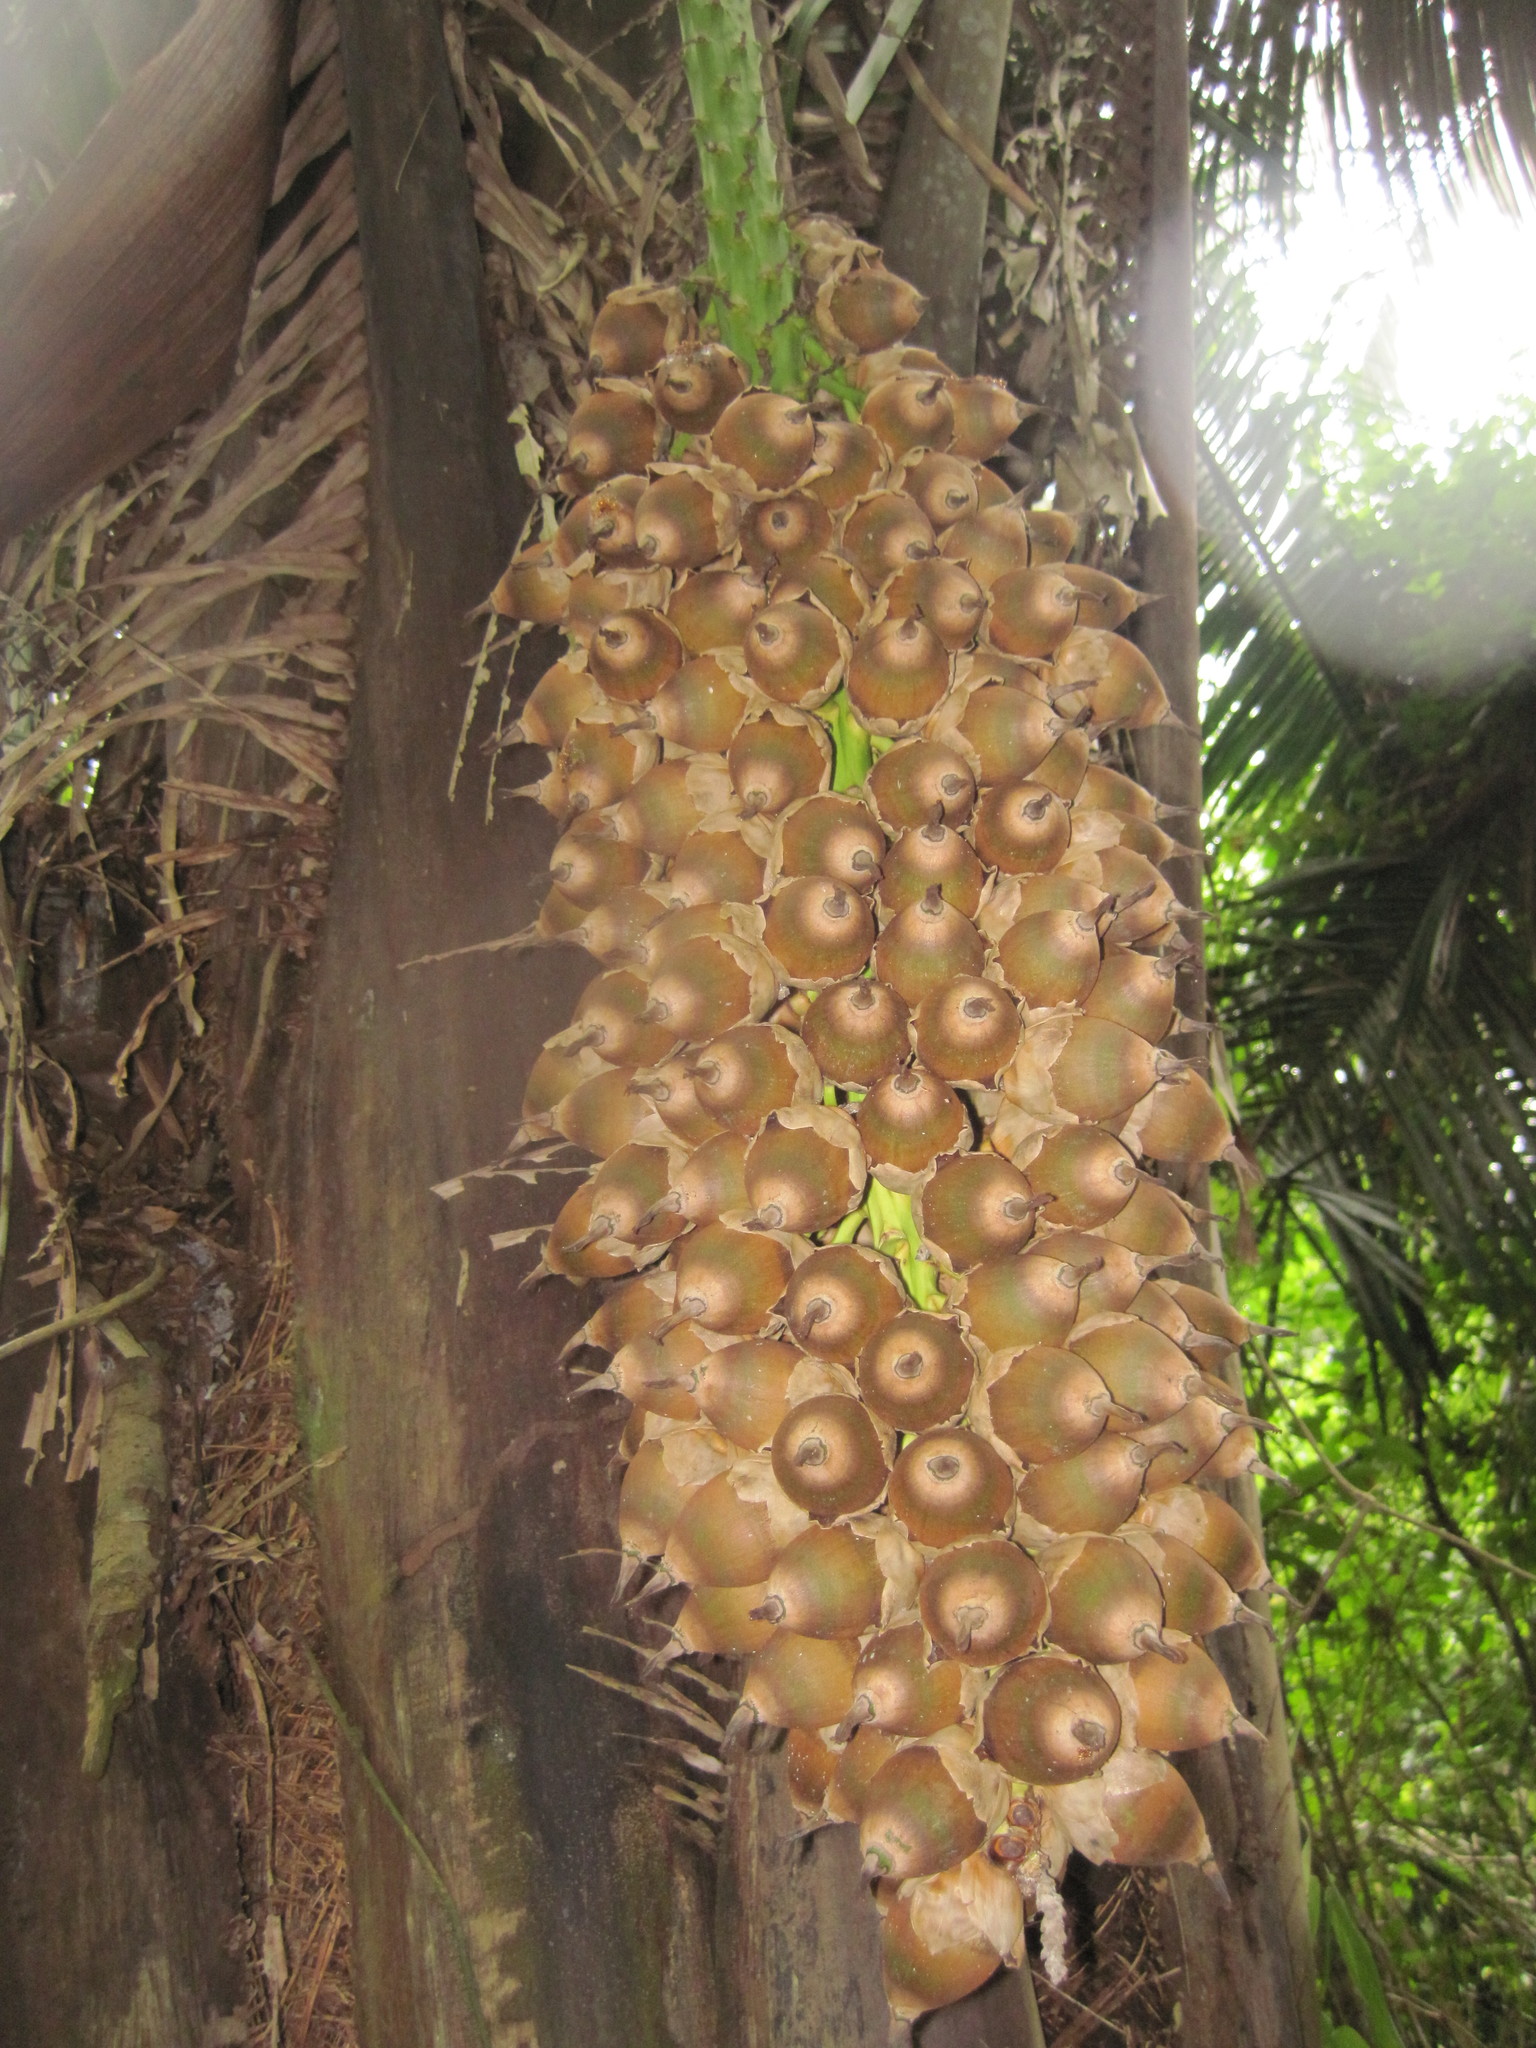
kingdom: Plantae
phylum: Tracheophyta
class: Liliopsida
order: Arecales
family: Arecaceae
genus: Attalea
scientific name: Attalea cohune
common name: Cohune palm
